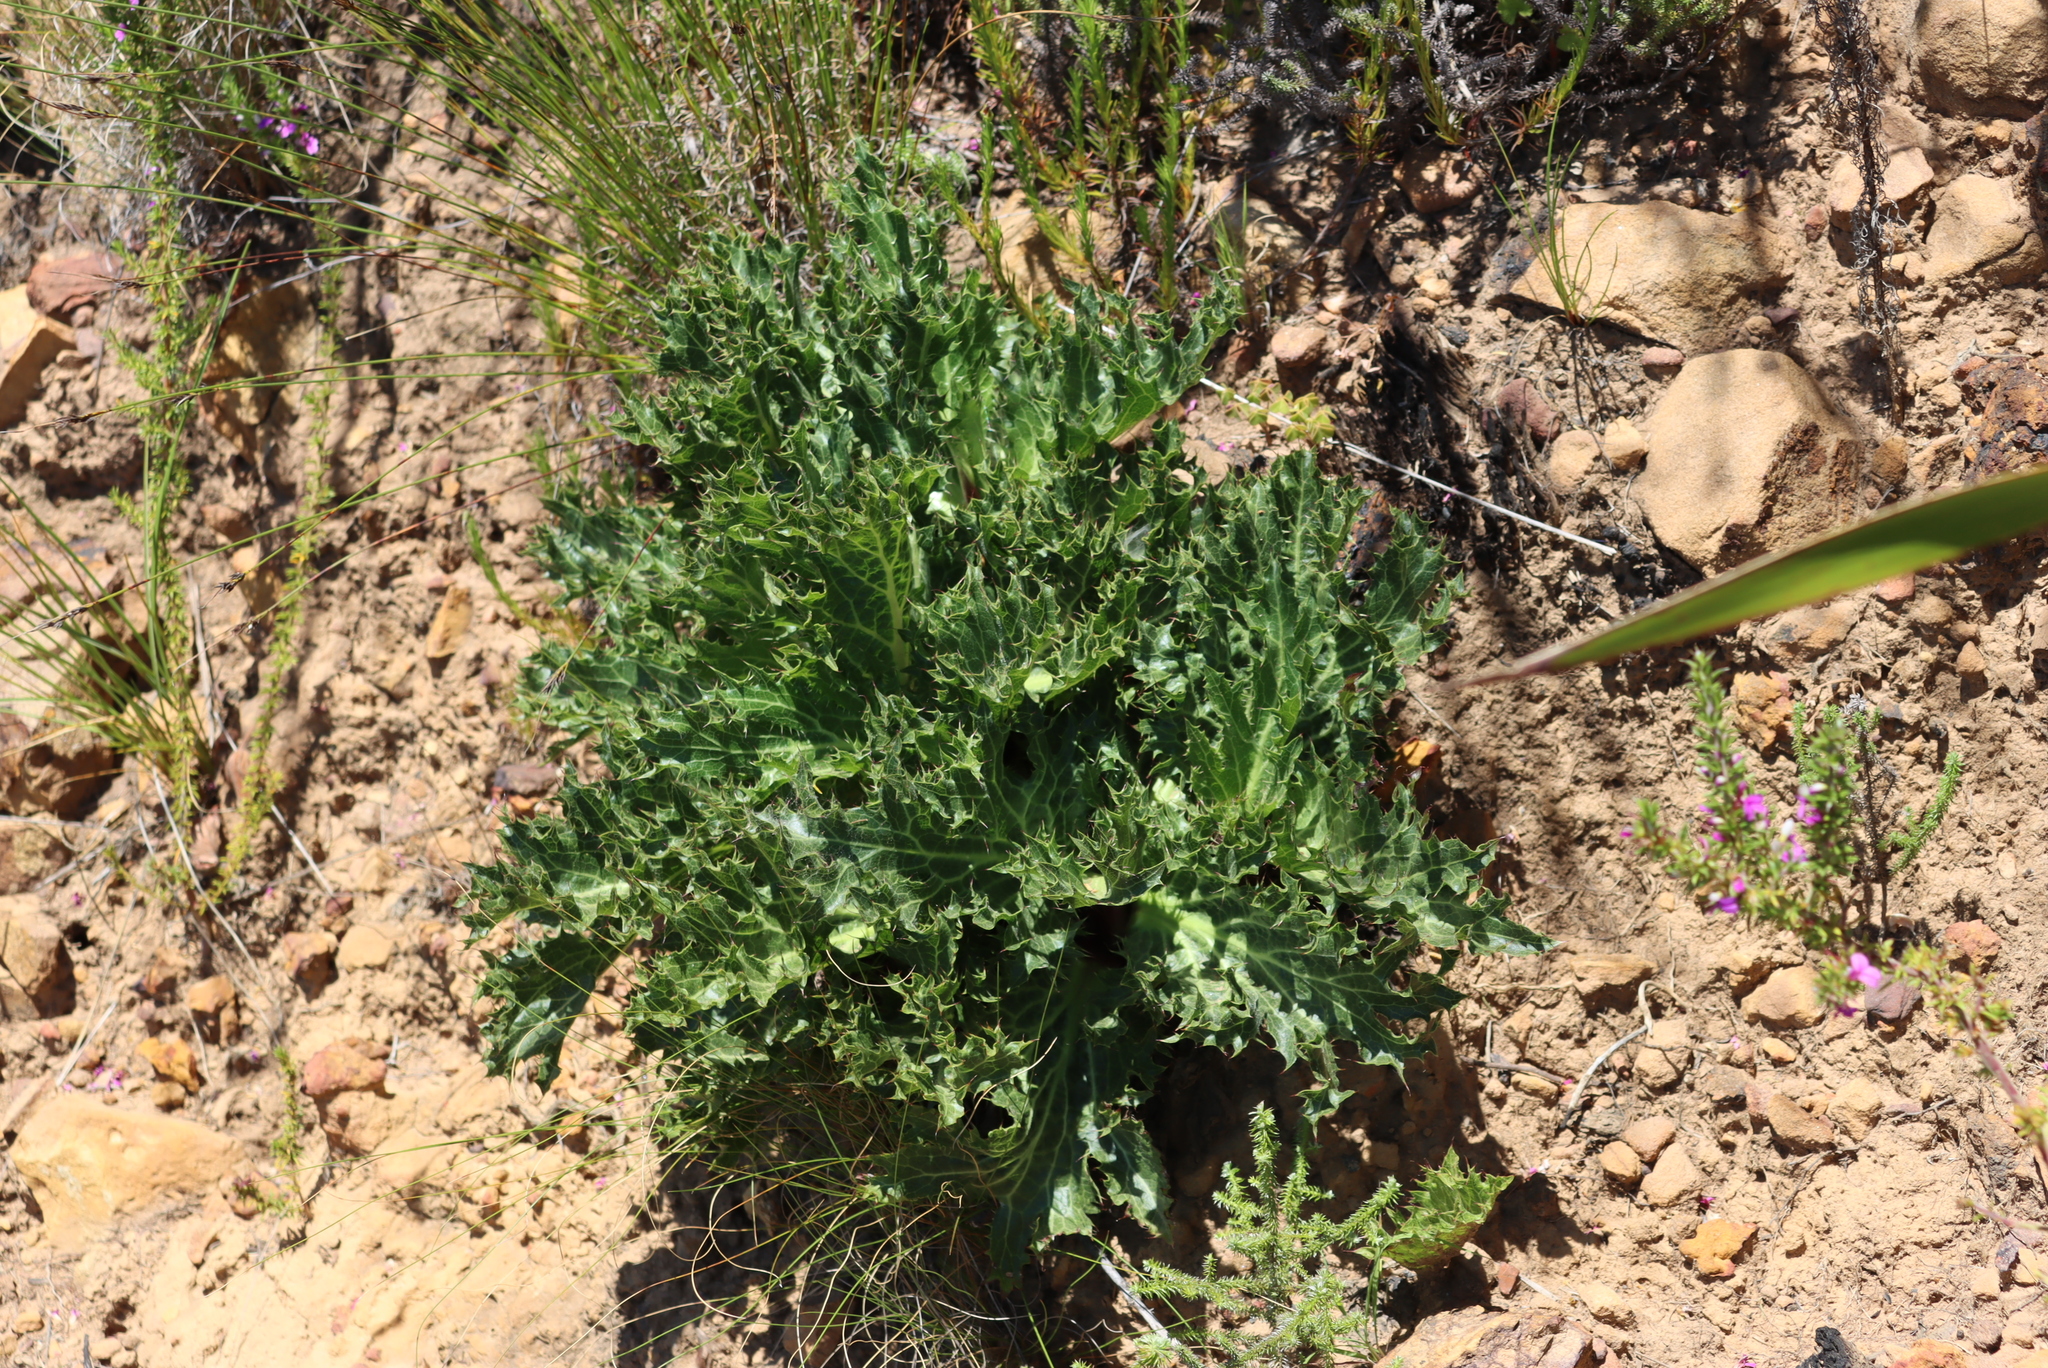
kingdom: Plantae
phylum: Tracheophyta
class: Magnoliopsida
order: Apiales
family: Apiaceae
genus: Lichtensteinia
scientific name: Lichtensteinia lacera
